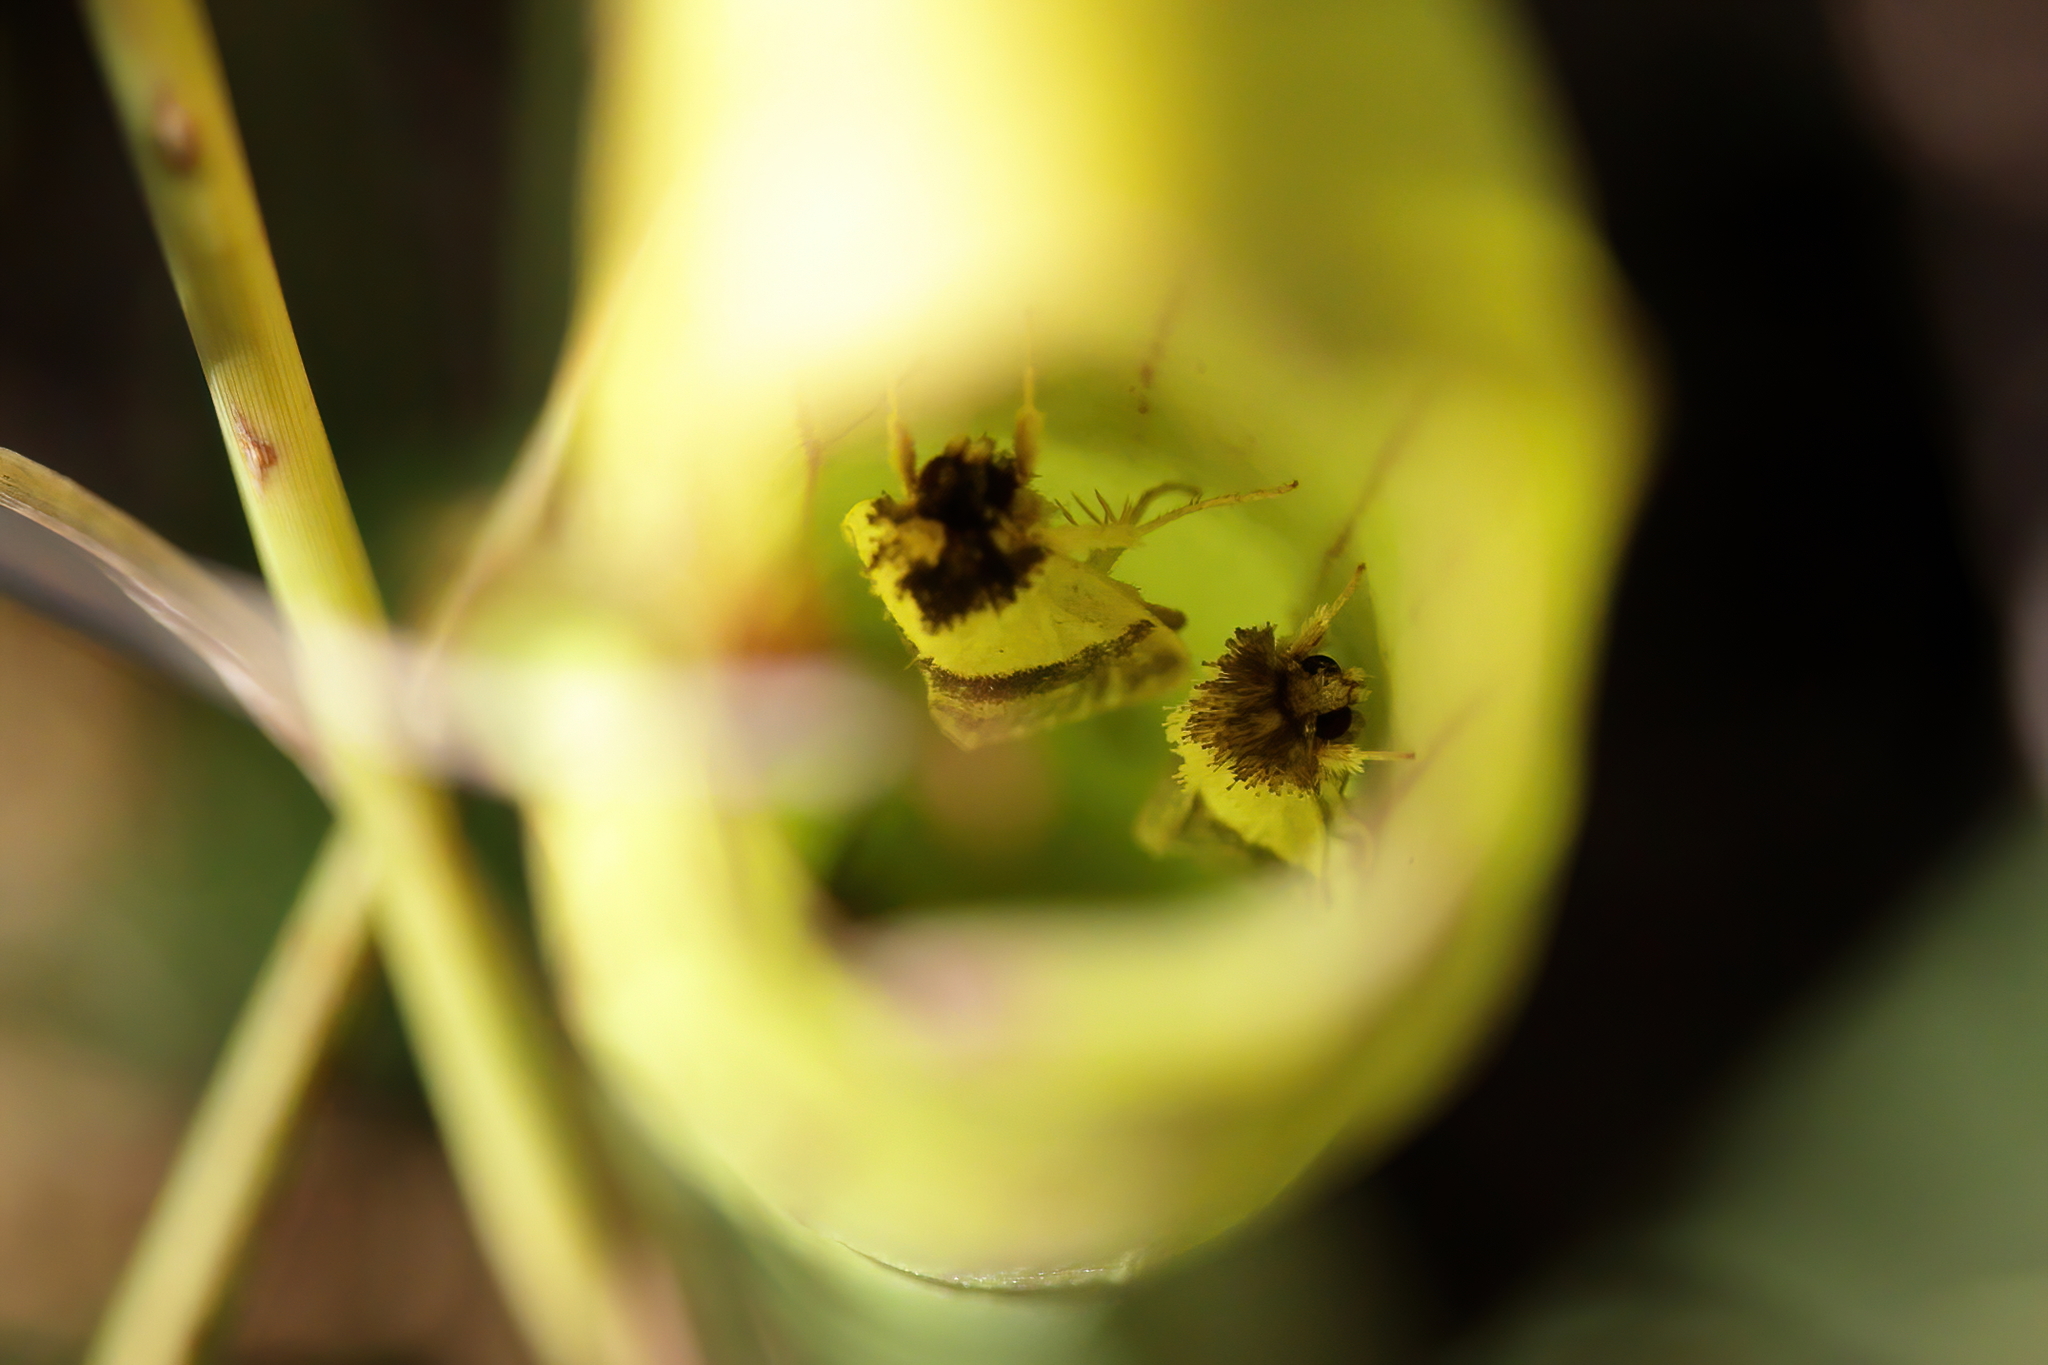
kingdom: Animalia
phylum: Arthropoda
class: Insecta
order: Lepidoptera
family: Noctuidae
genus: Exyra
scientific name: Exyra semicrocea
